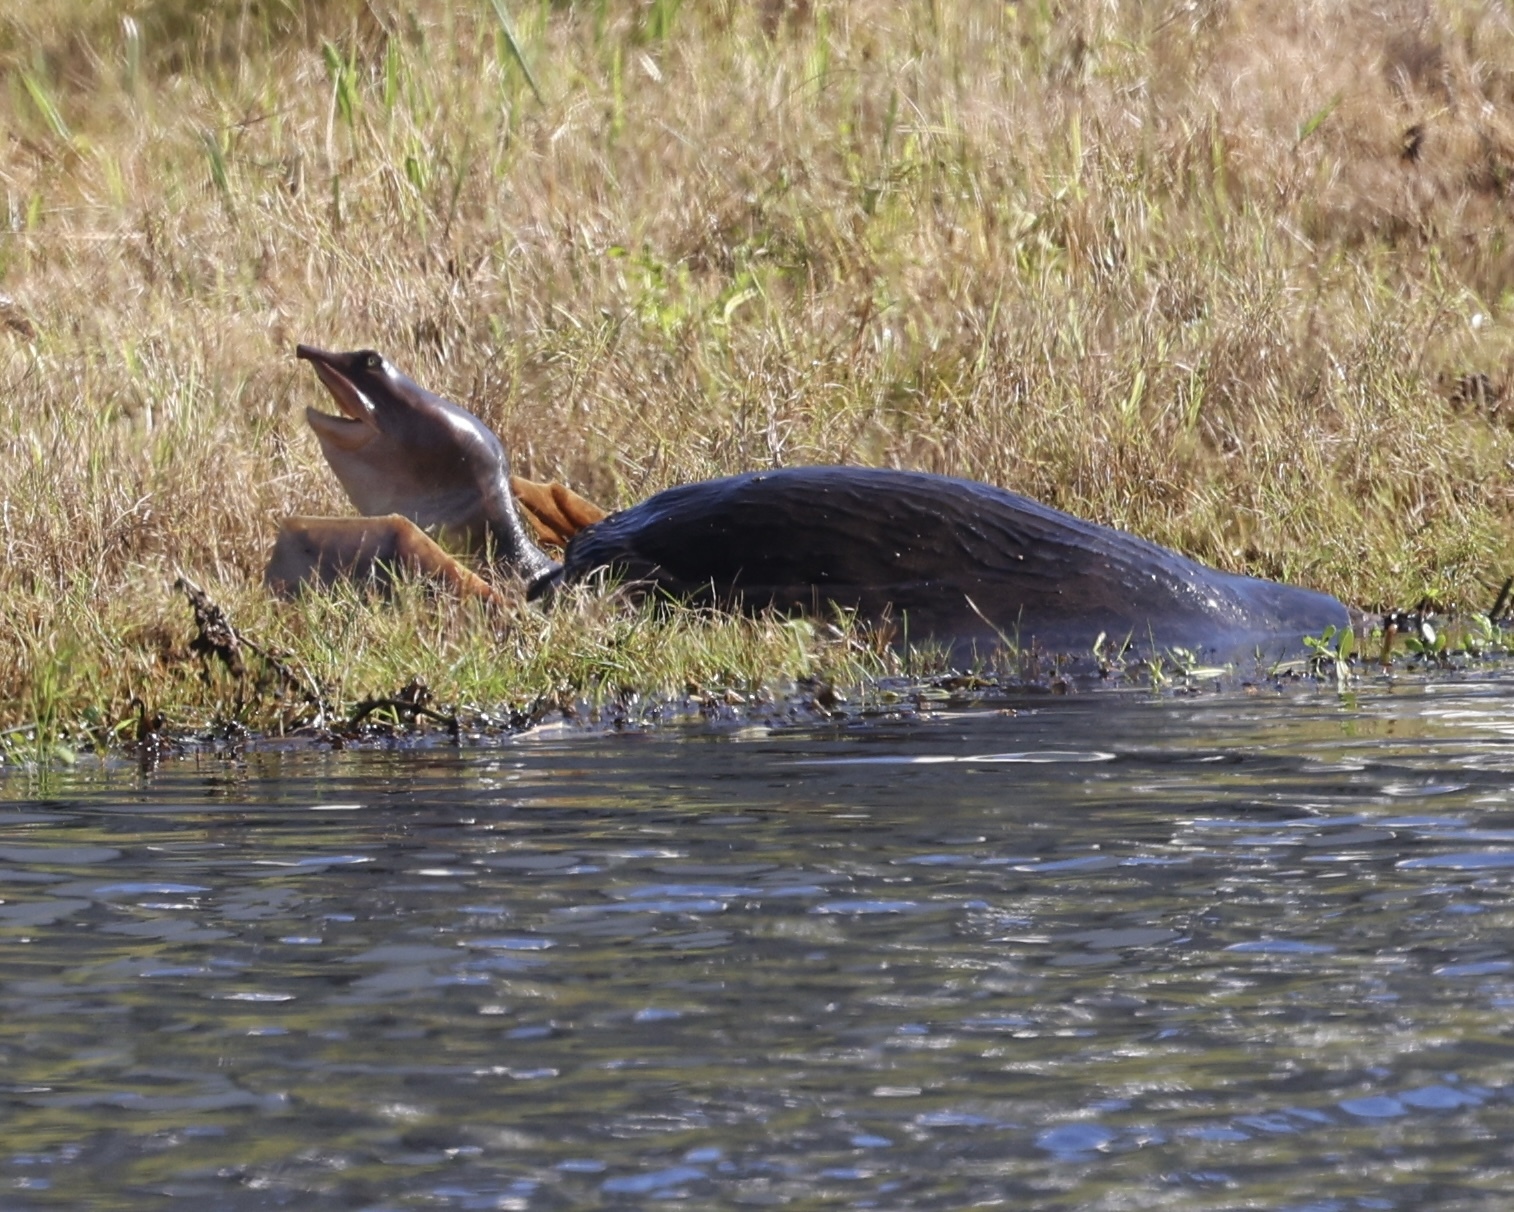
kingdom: Animalia
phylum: Chordata
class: Testudines
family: Trionychidae
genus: Apalone
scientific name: Apalone ferox
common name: Florida softshell turtle
